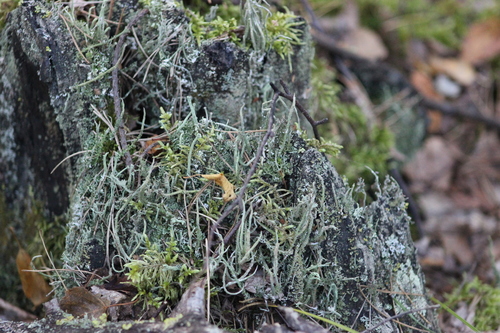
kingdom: Fungi
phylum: Ascomycota
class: Lecanoromycetes
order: Lecanorales
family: Cladoniaceae
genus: Cladonia
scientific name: Cladonia cornuta
